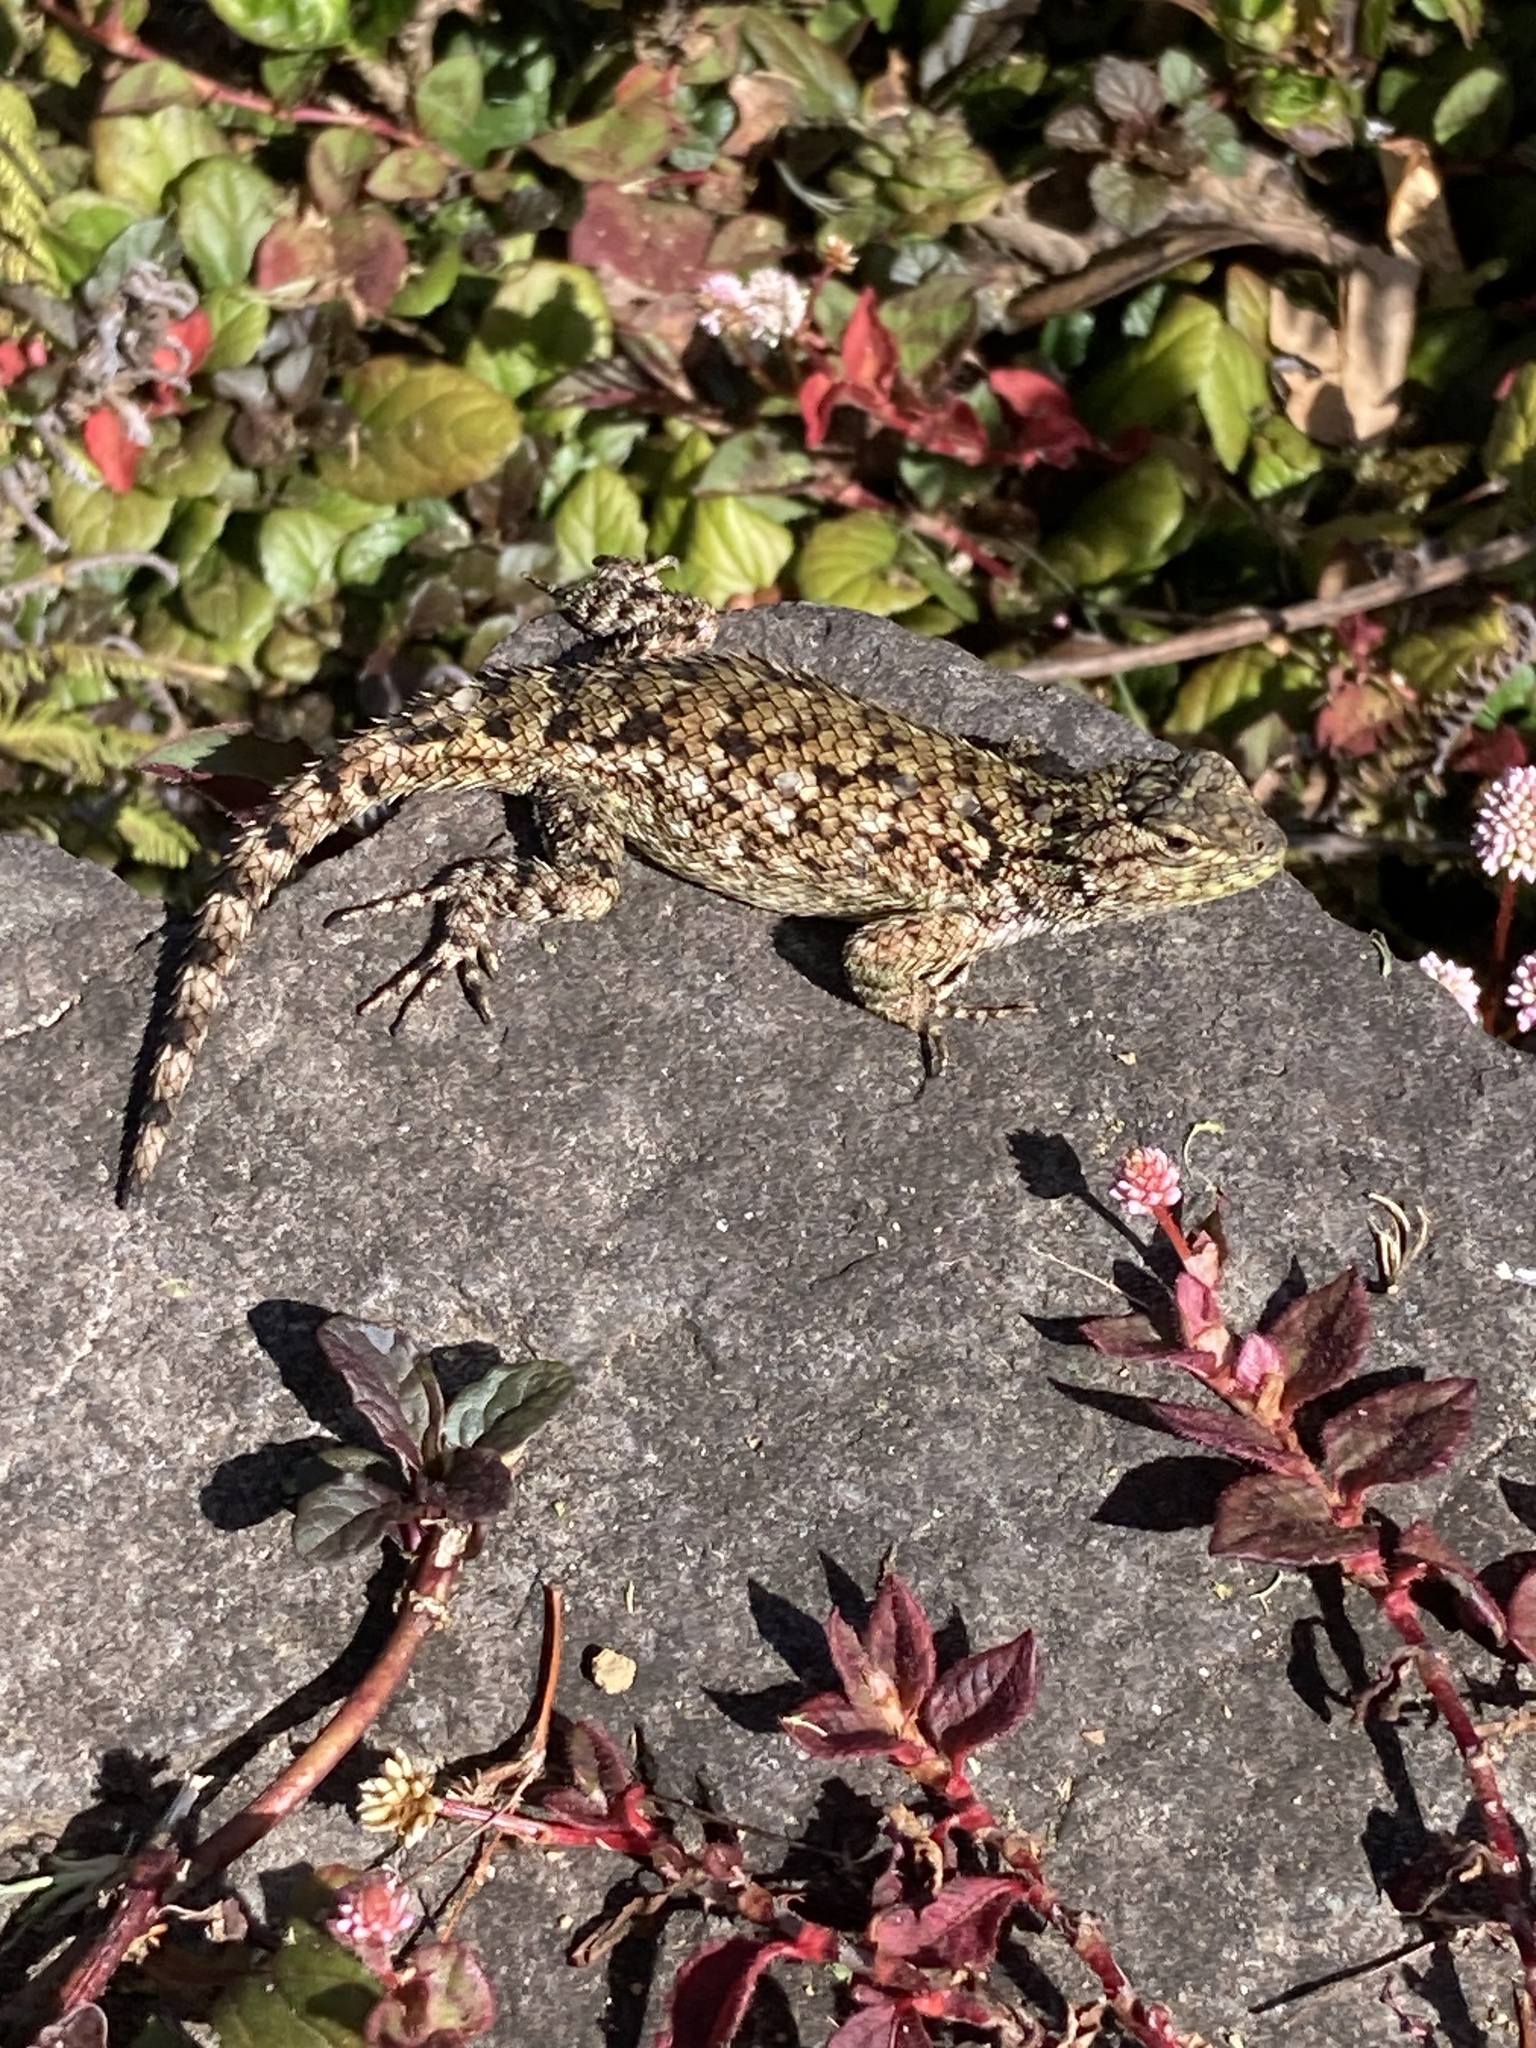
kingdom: Animalia
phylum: Chordata
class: Squamata
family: Phrynosomatidae
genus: Sceloporus
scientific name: Sceloporus malachiticus
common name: Green spiny lizard
